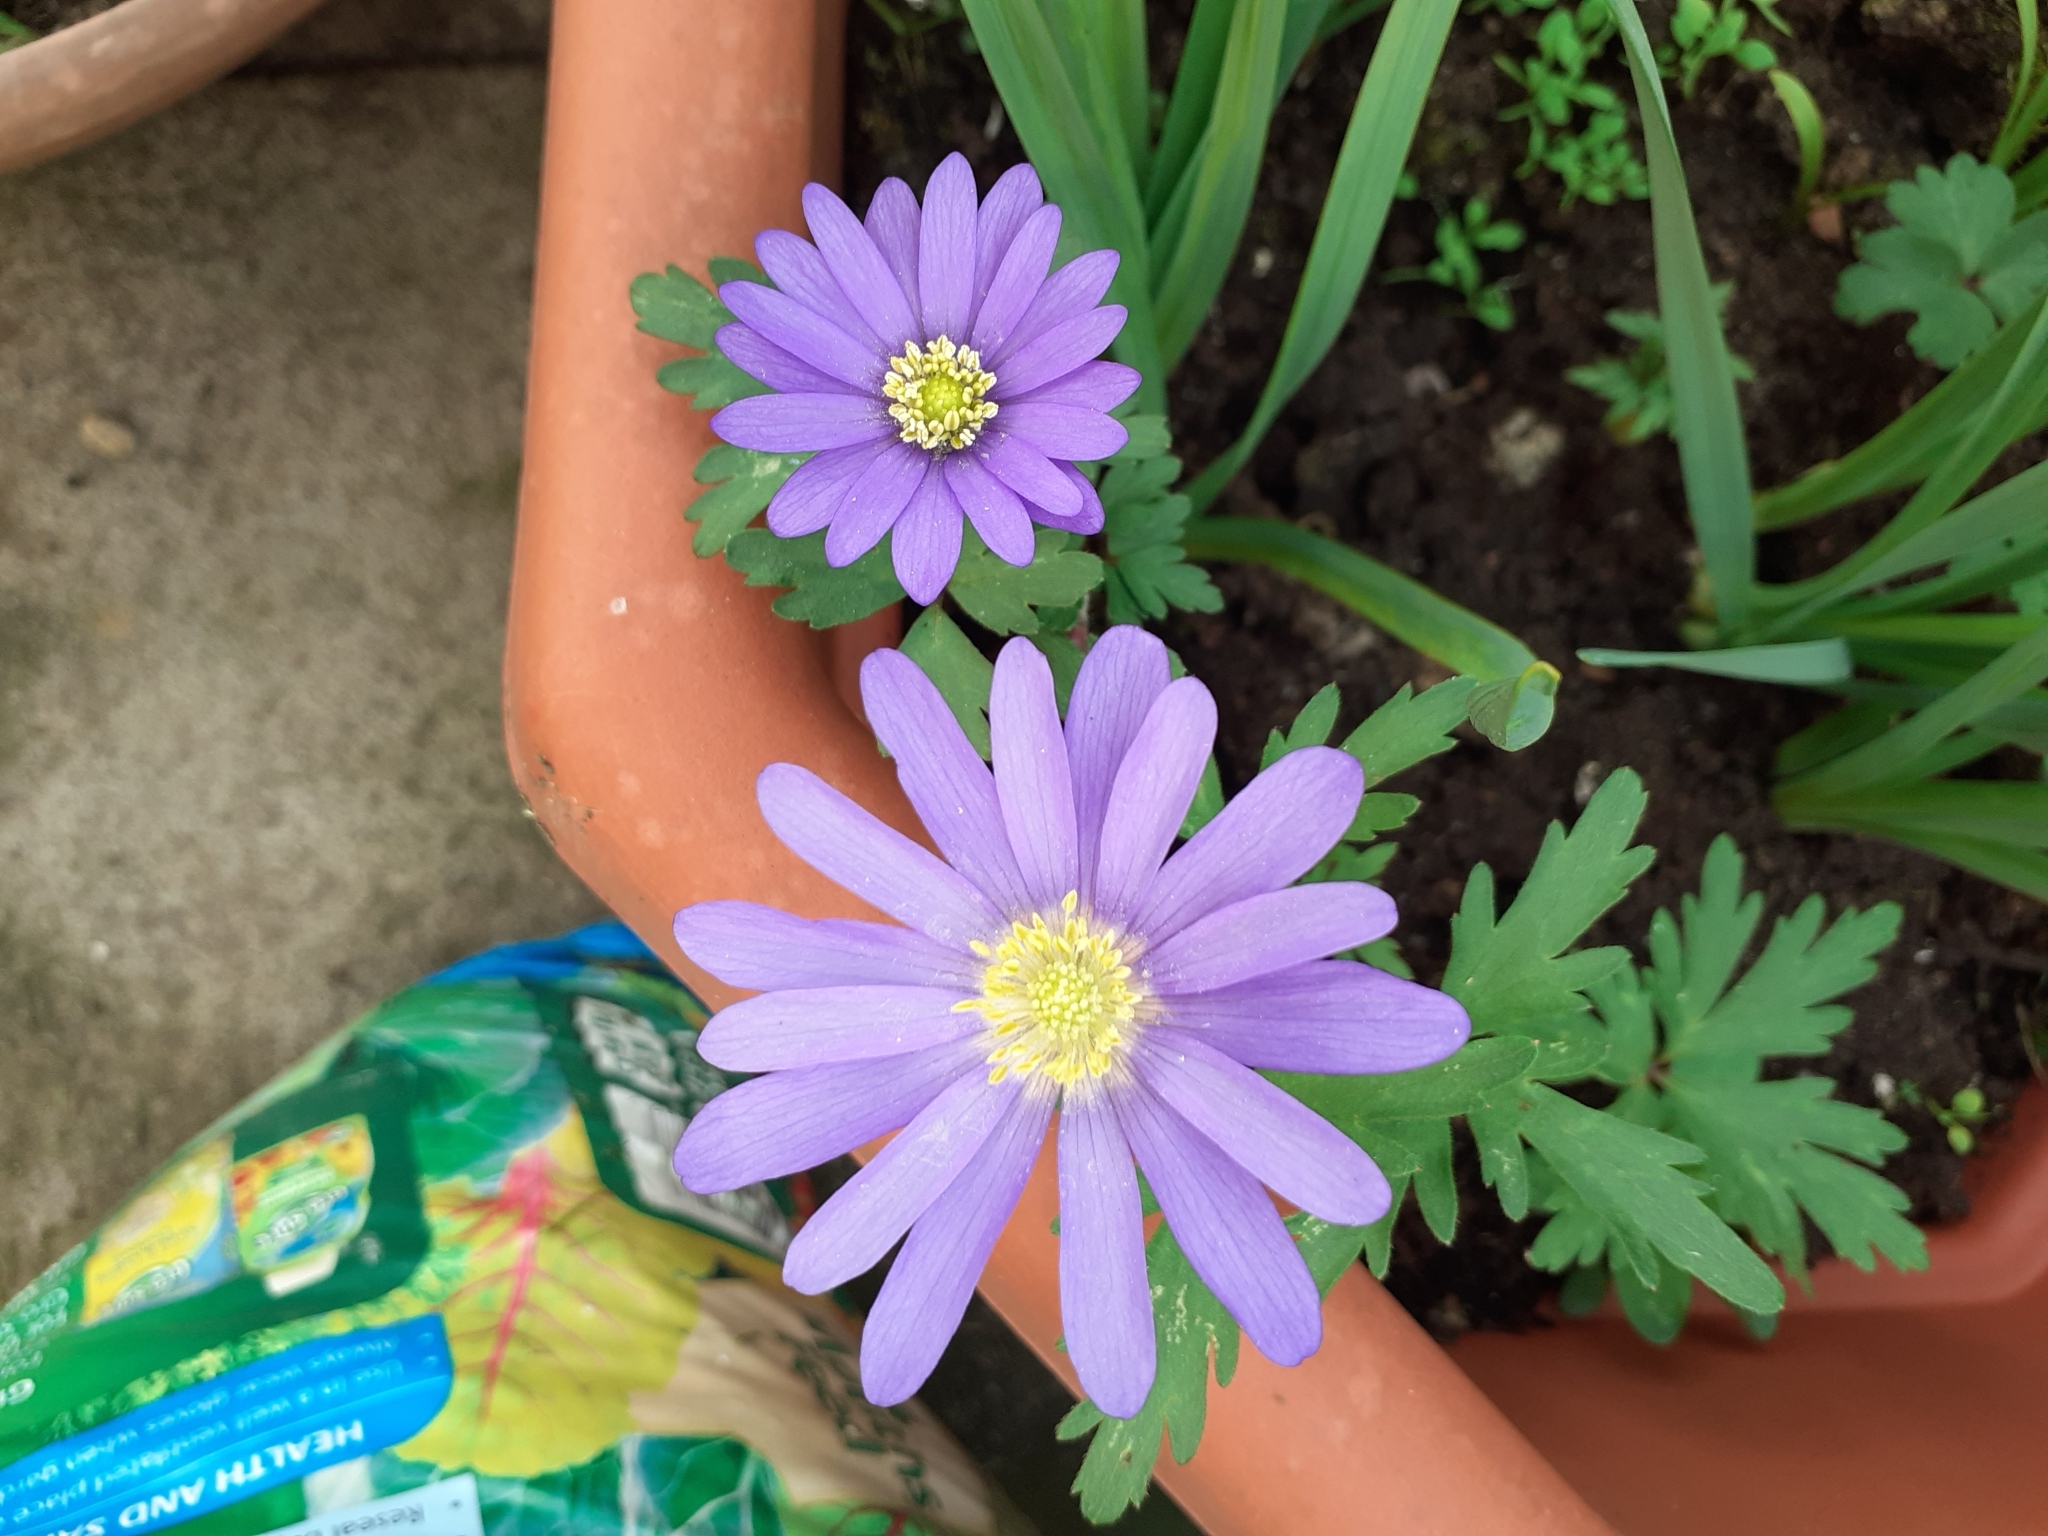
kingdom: Plantae
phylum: Tracheophyta
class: Magnoliopsida
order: Ranunculales
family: Ranunculaceae
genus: Anemone
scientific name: Anemone blanda
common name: Balkan anemone
